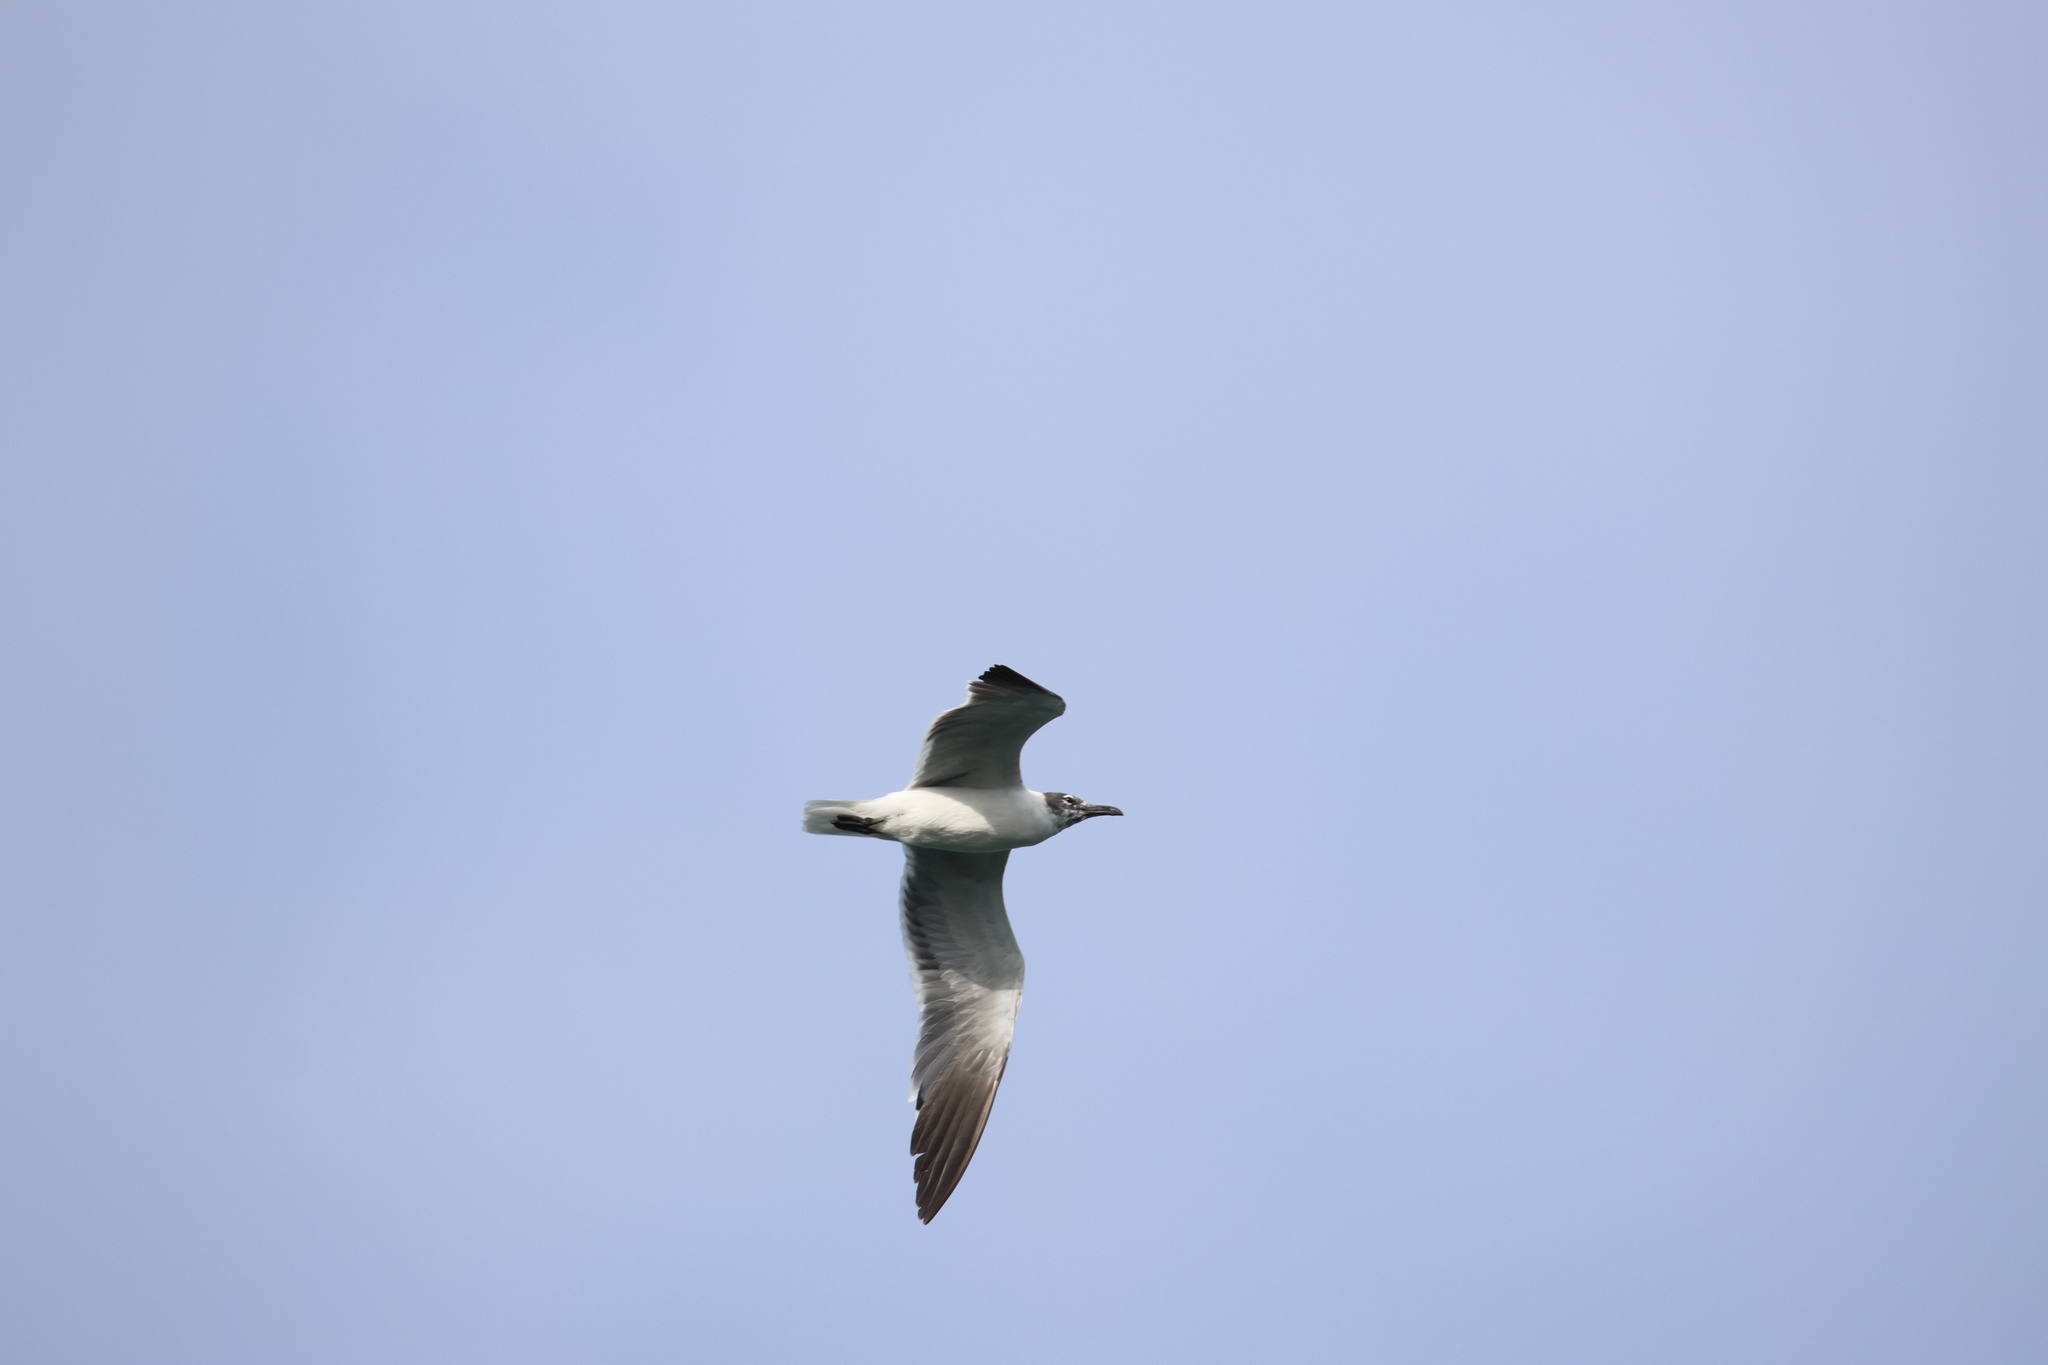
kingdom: Animalia
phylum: Chordata
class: Aves
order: Charadriiformes
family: Laridae
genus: Leucophaeus
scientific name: Leucophaeus atricilla
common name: Laughing gull
